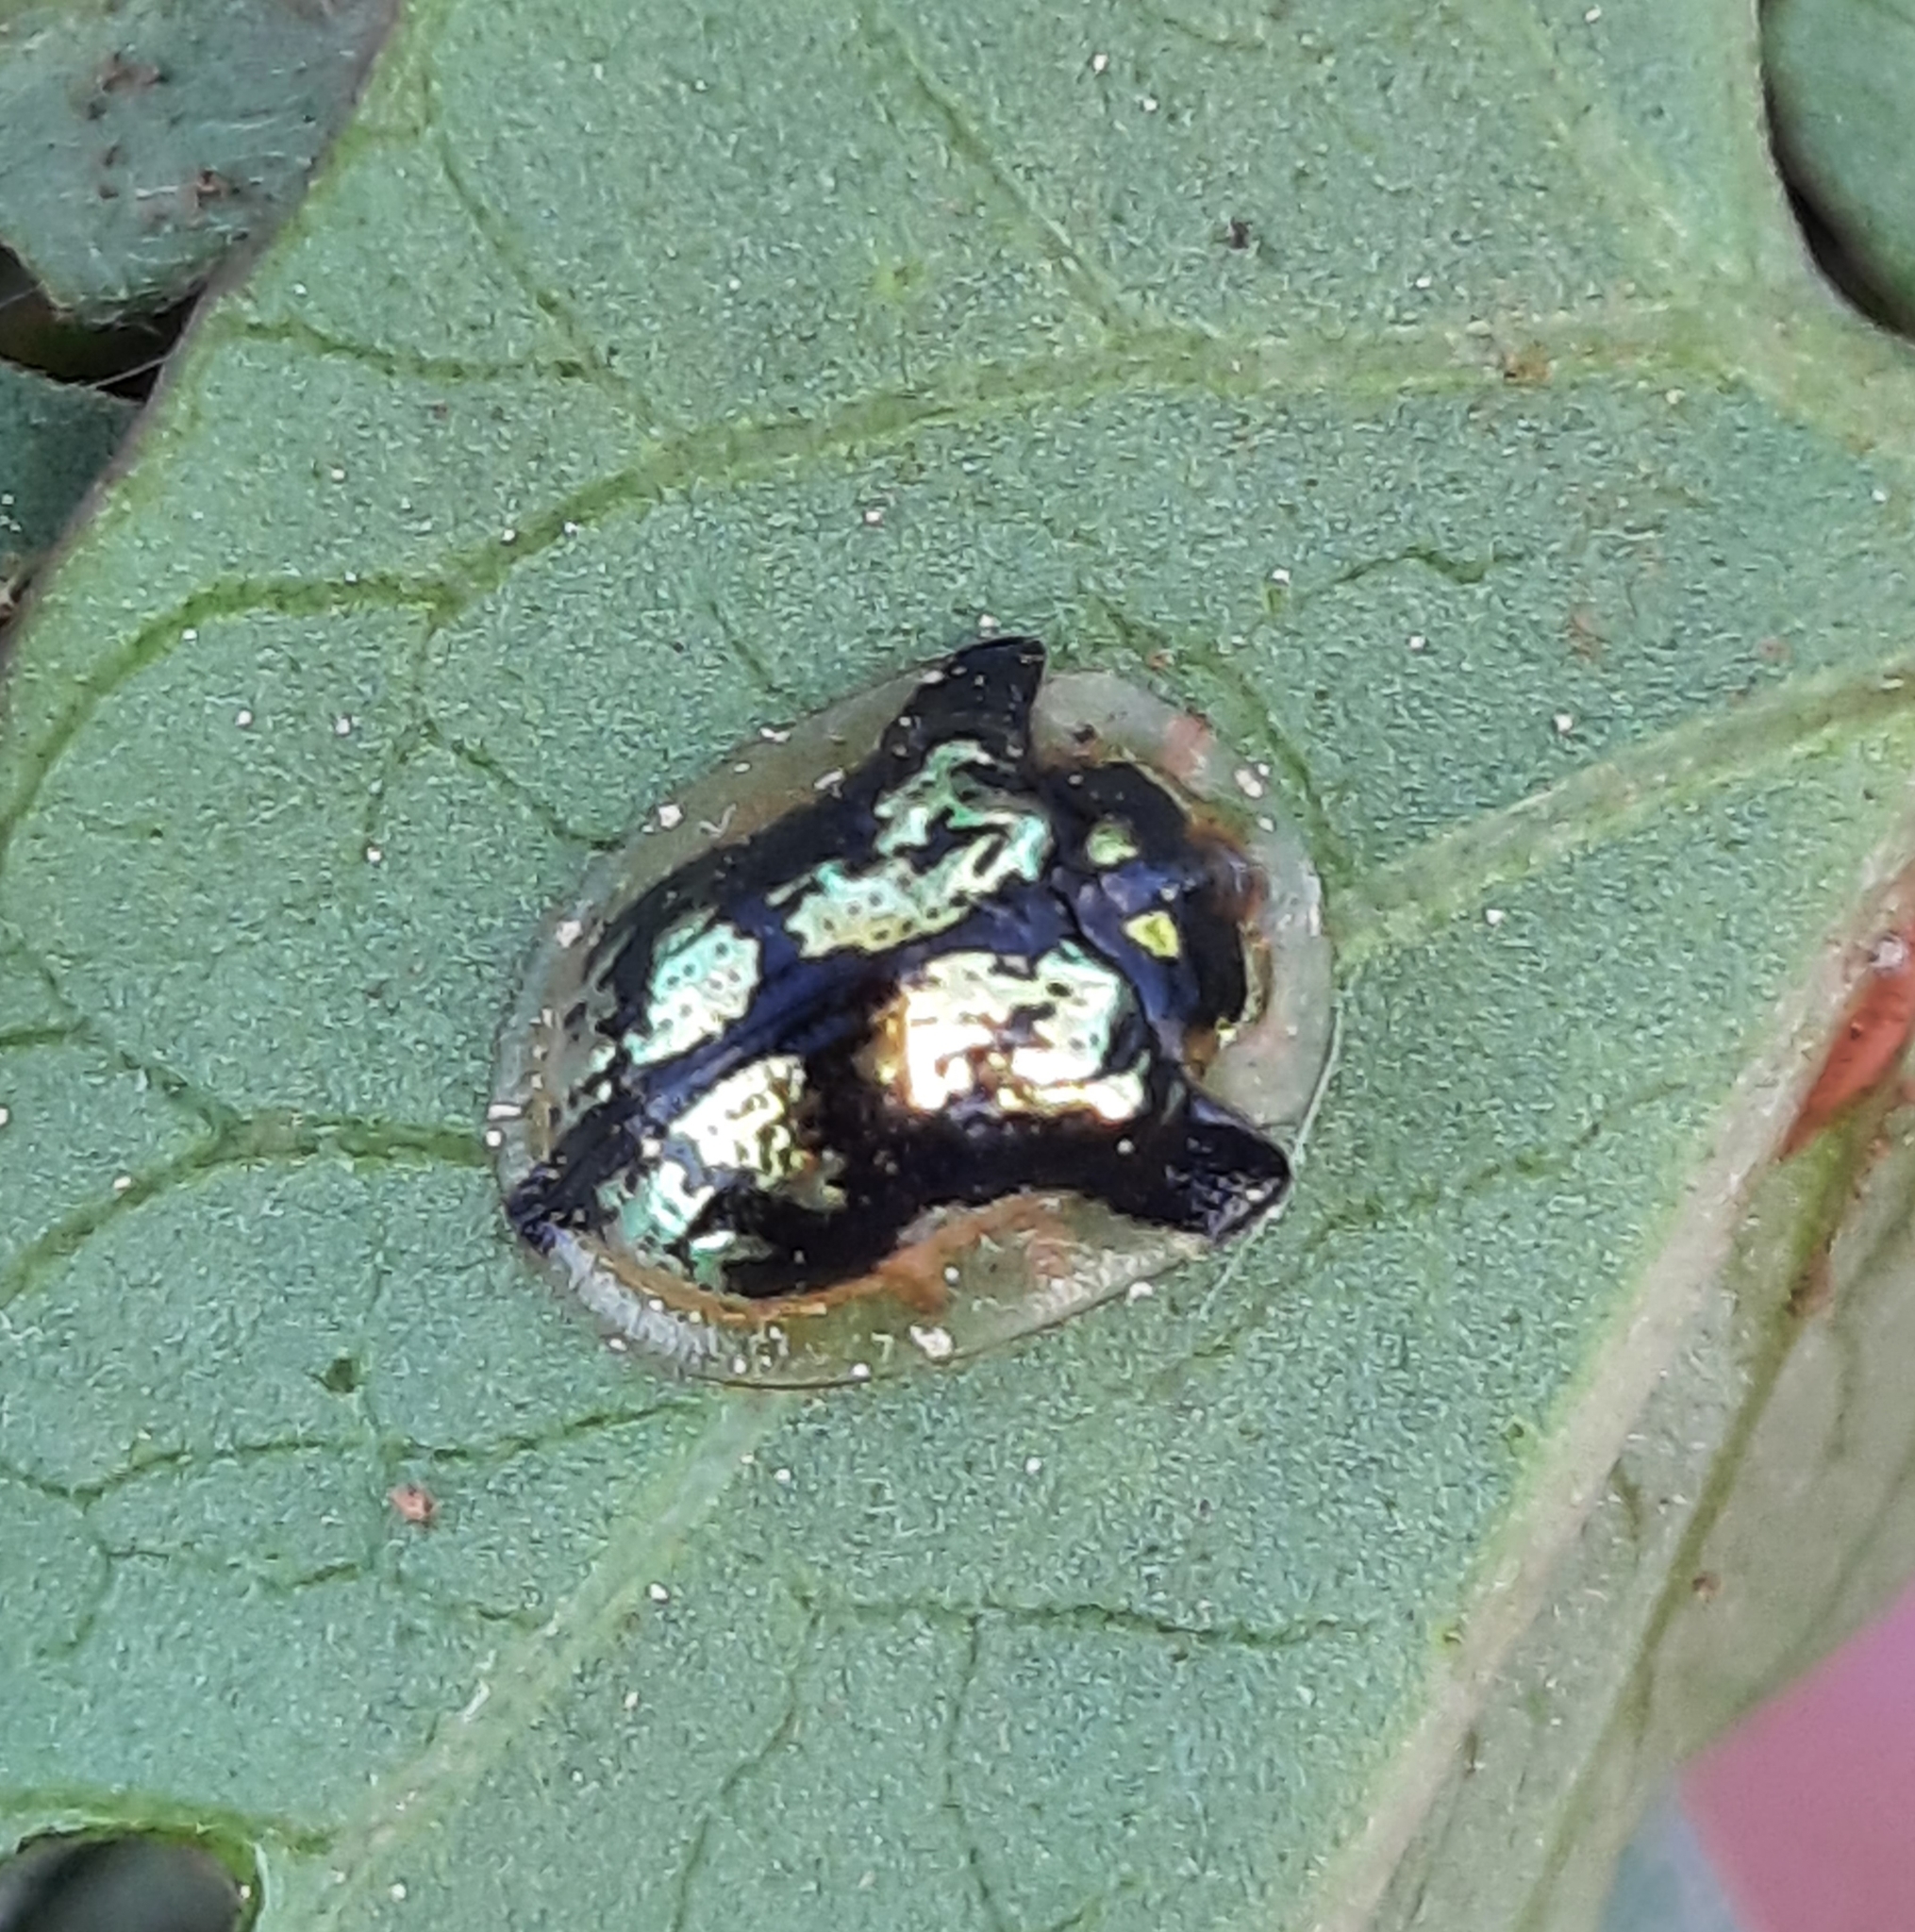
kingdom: Animalia
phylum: Arthropoda
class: Insecta
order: Coleoptera
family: Chrysomelidae
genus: Deloyala
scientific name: Deloyala guttata
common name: Mottled tortoise beetle
